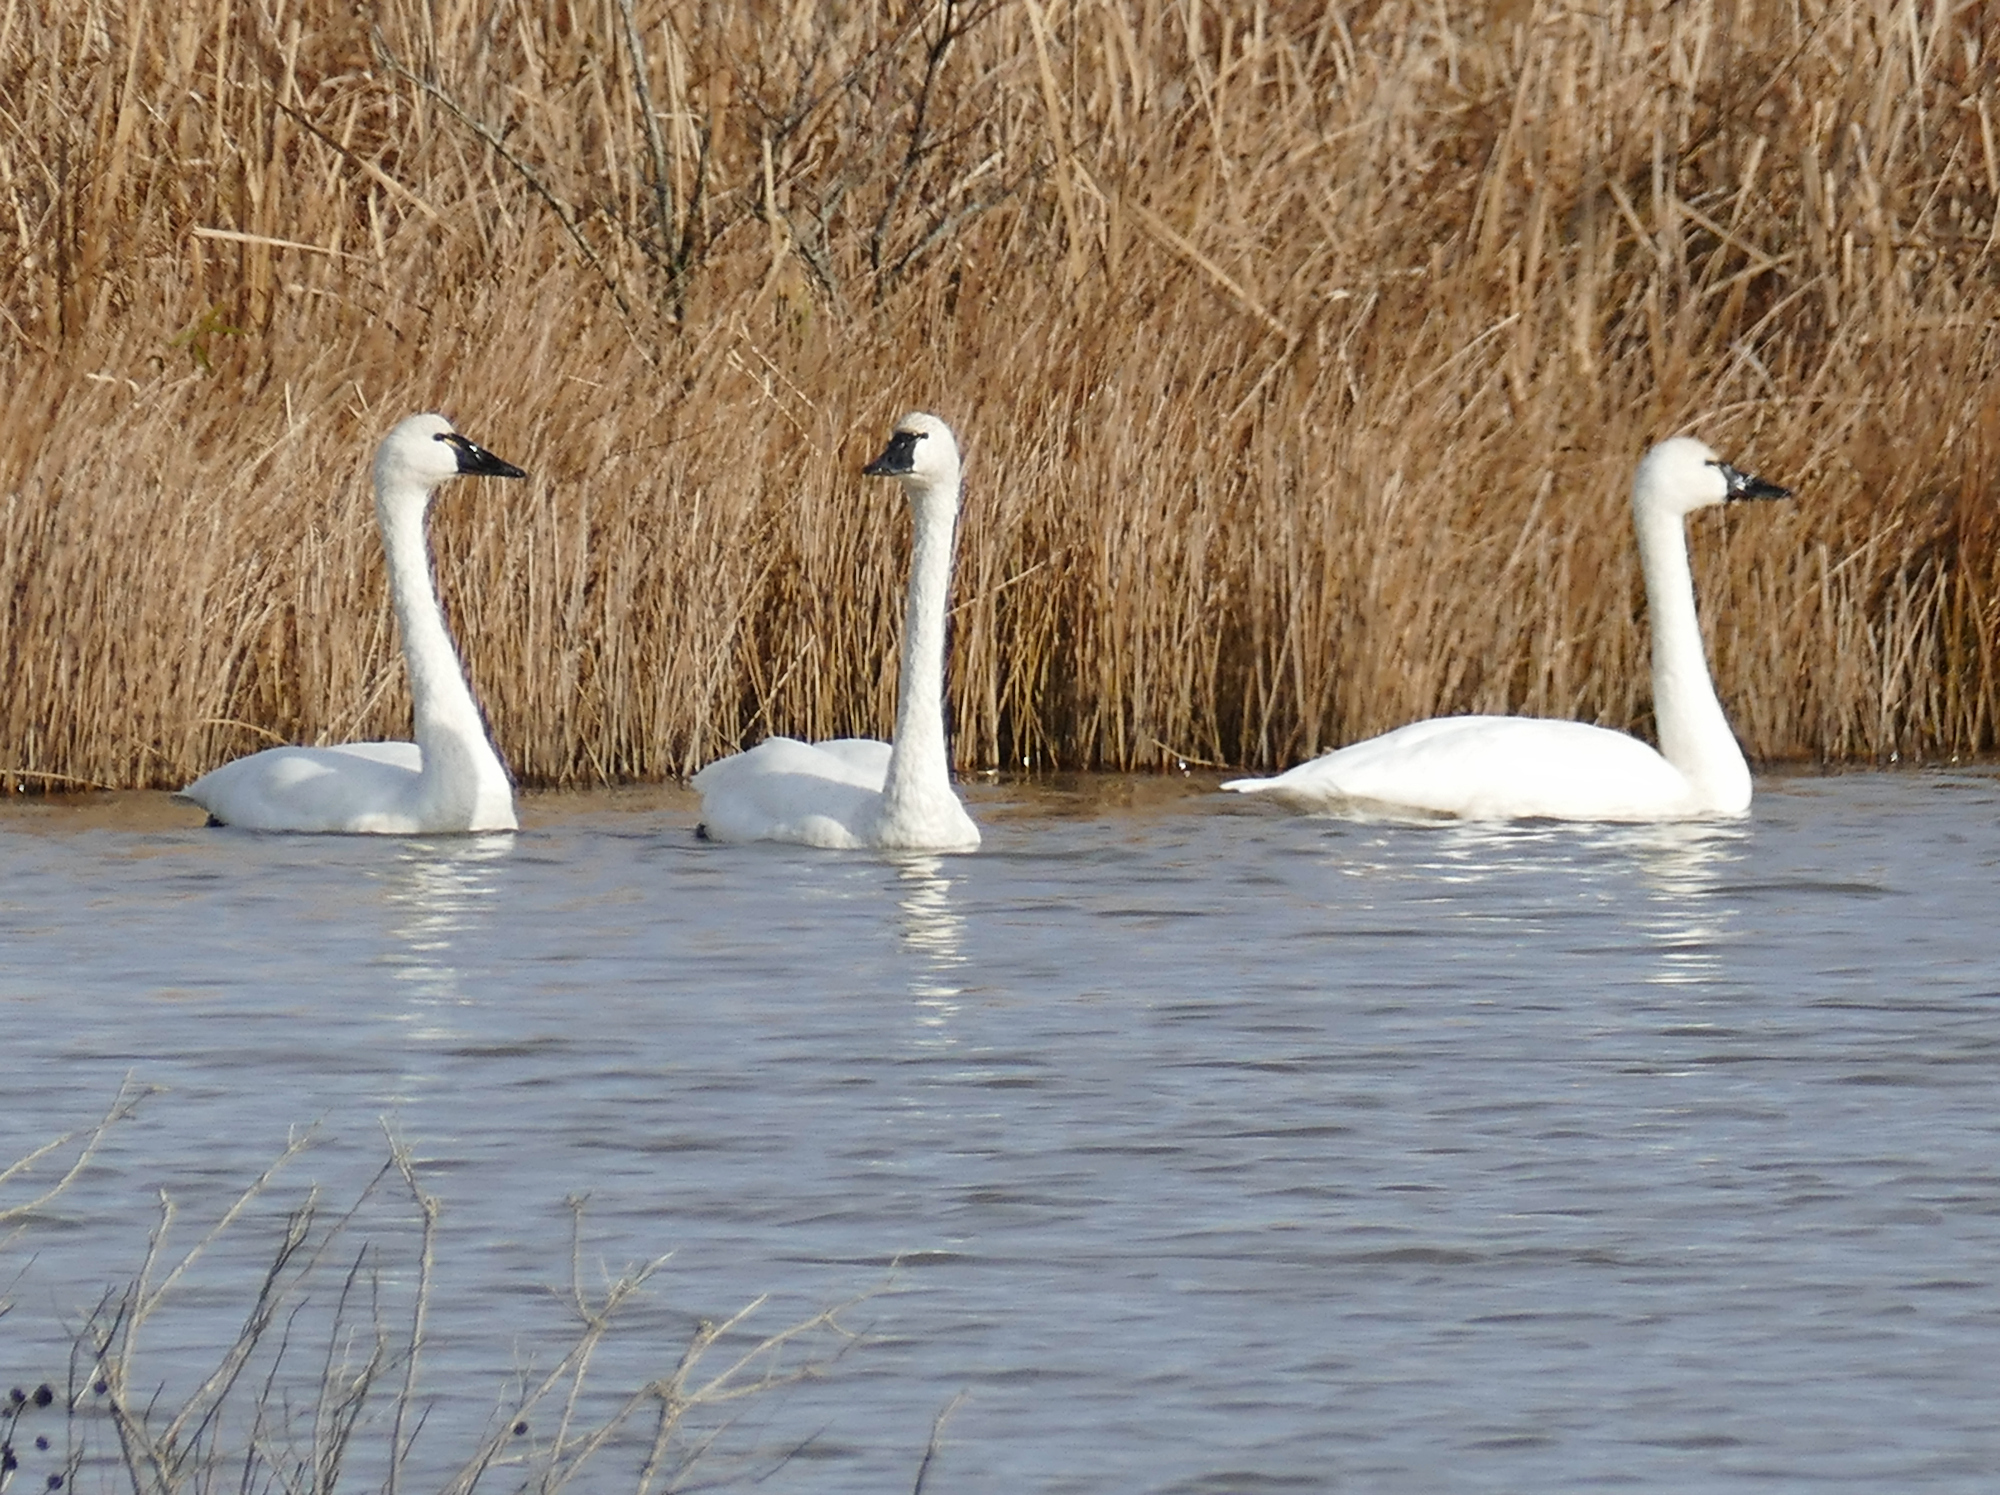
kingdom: Animalia
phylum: Chordata
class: Aves
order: Anseriformes
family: Anatidae
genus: Cygnus
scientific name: Cygnus columbianus
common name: Tundra swan
